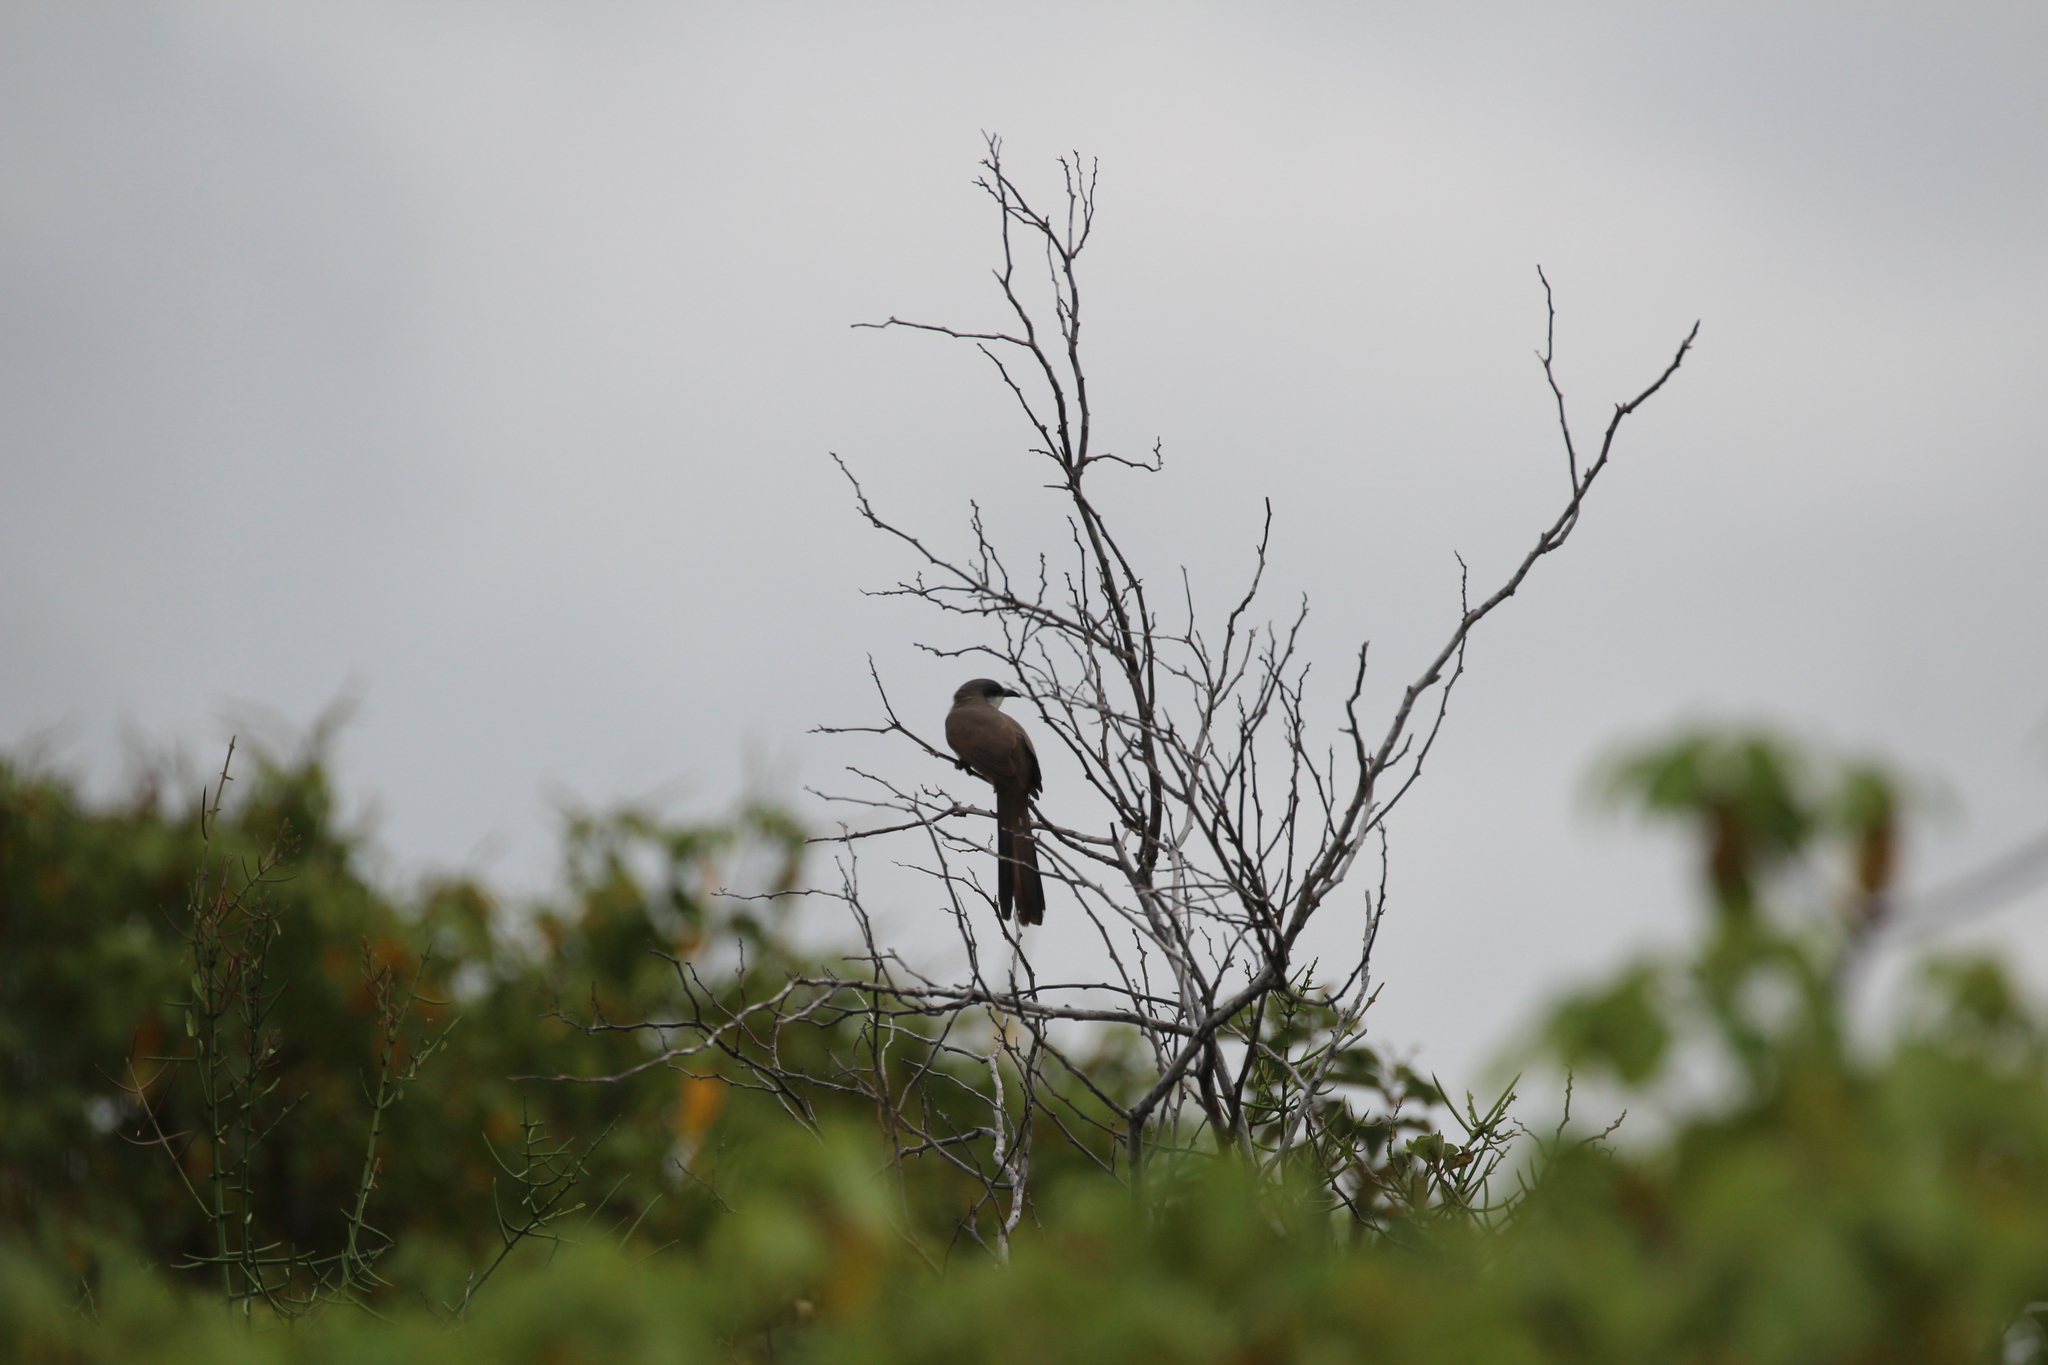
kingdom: Animalia
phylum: Chordata
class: Aves
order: Cuculiformes
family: Cuculidae
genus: Coccyzus
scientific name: Coccyzus melacoryphus
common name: Dark-billed cuckoo
